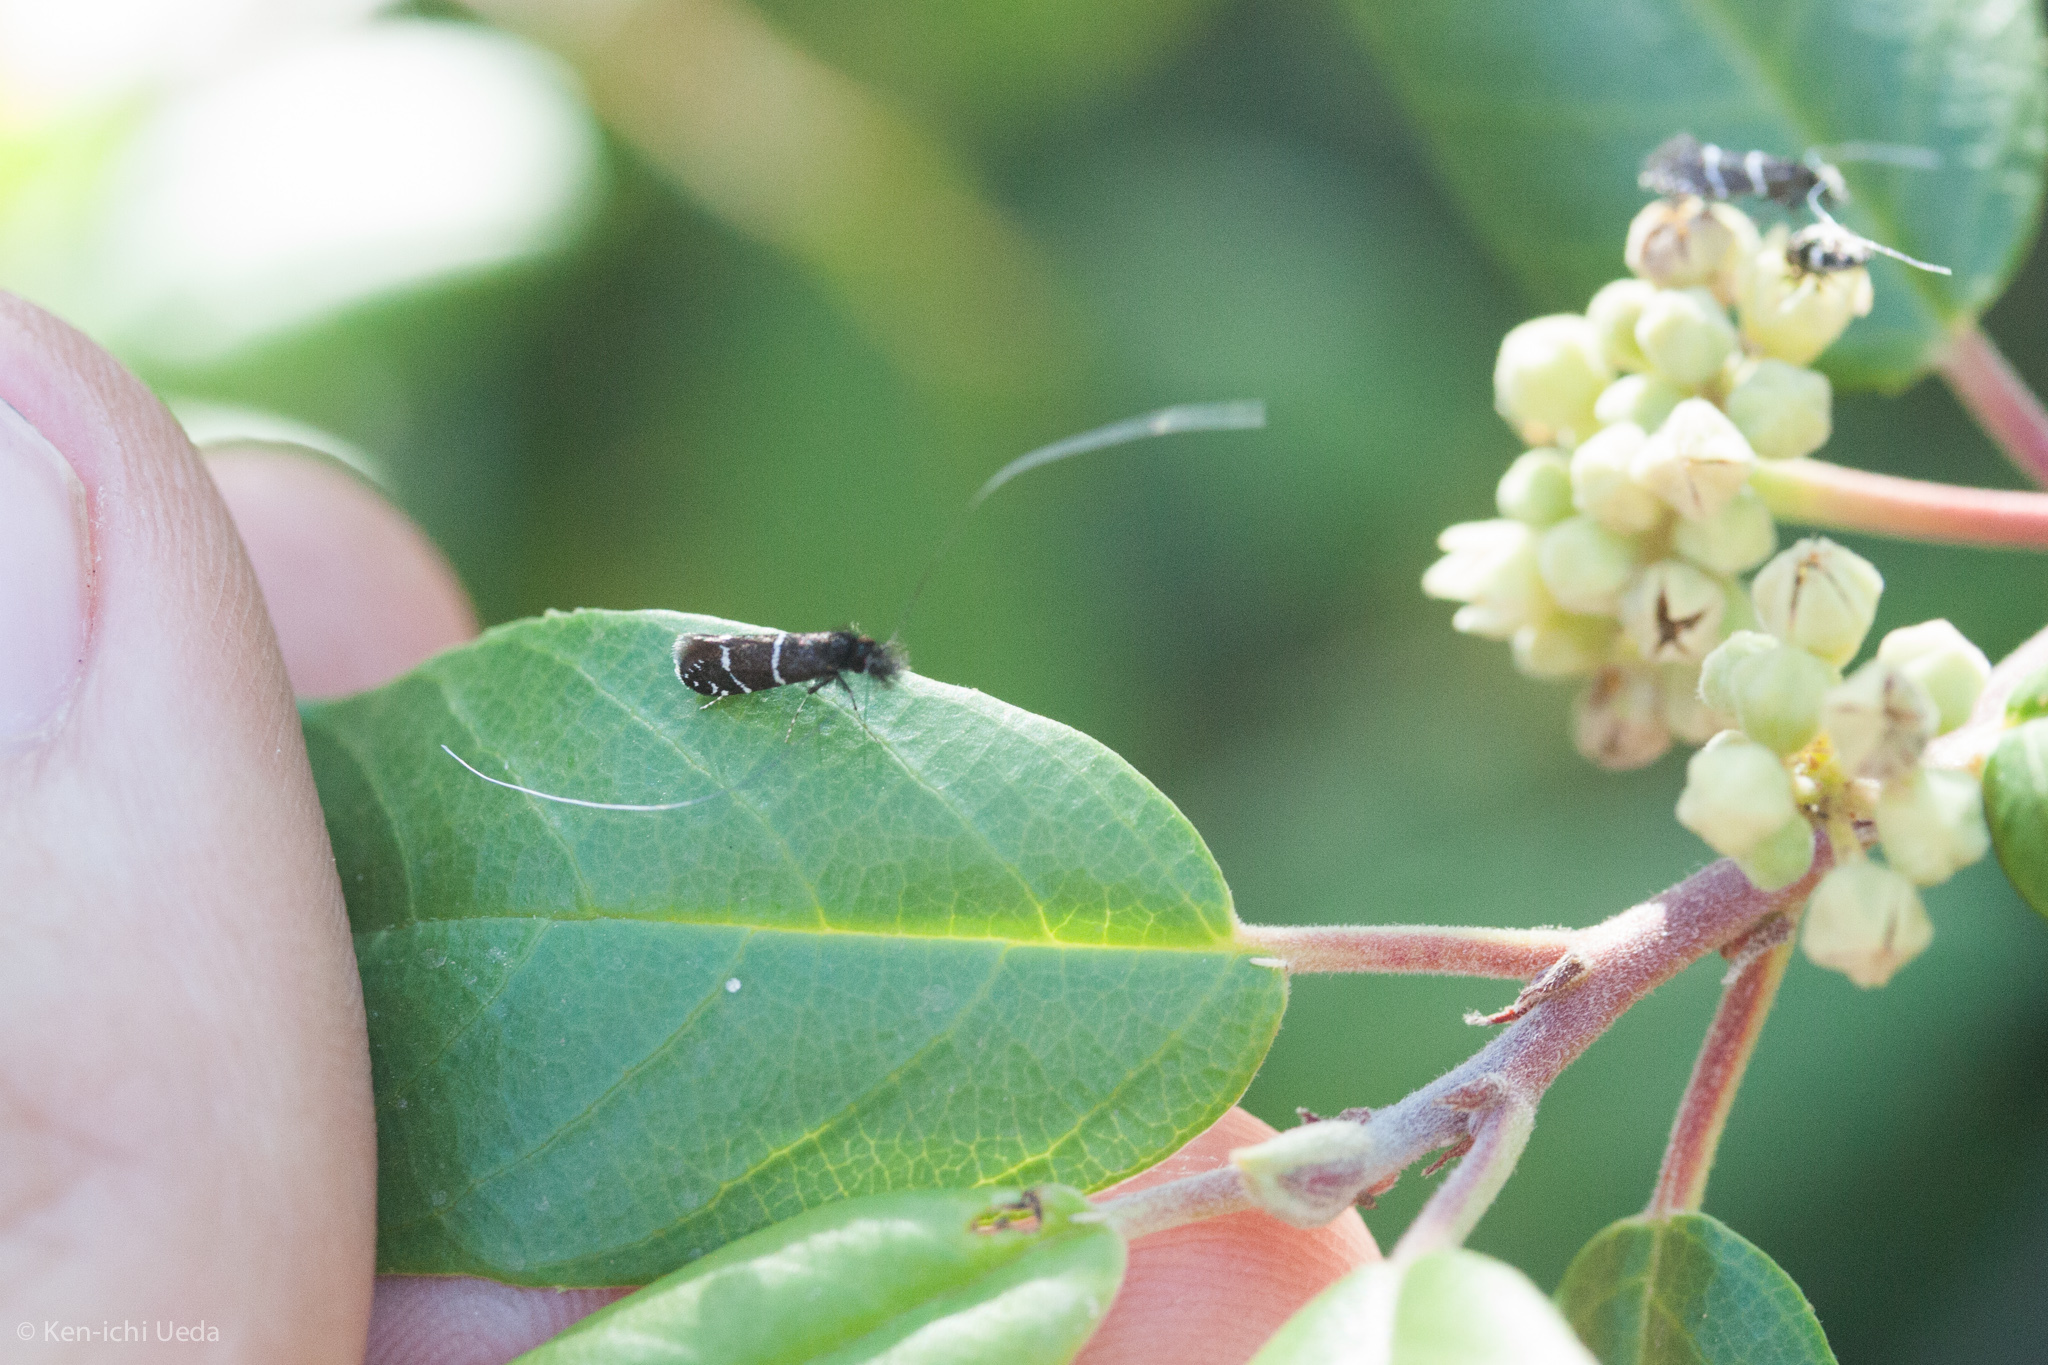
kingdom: Animalia
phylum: Arthropoda
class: Insecta
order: Lepidoptera
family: Adelidae
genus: Adela
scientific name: Adela septentrionella
